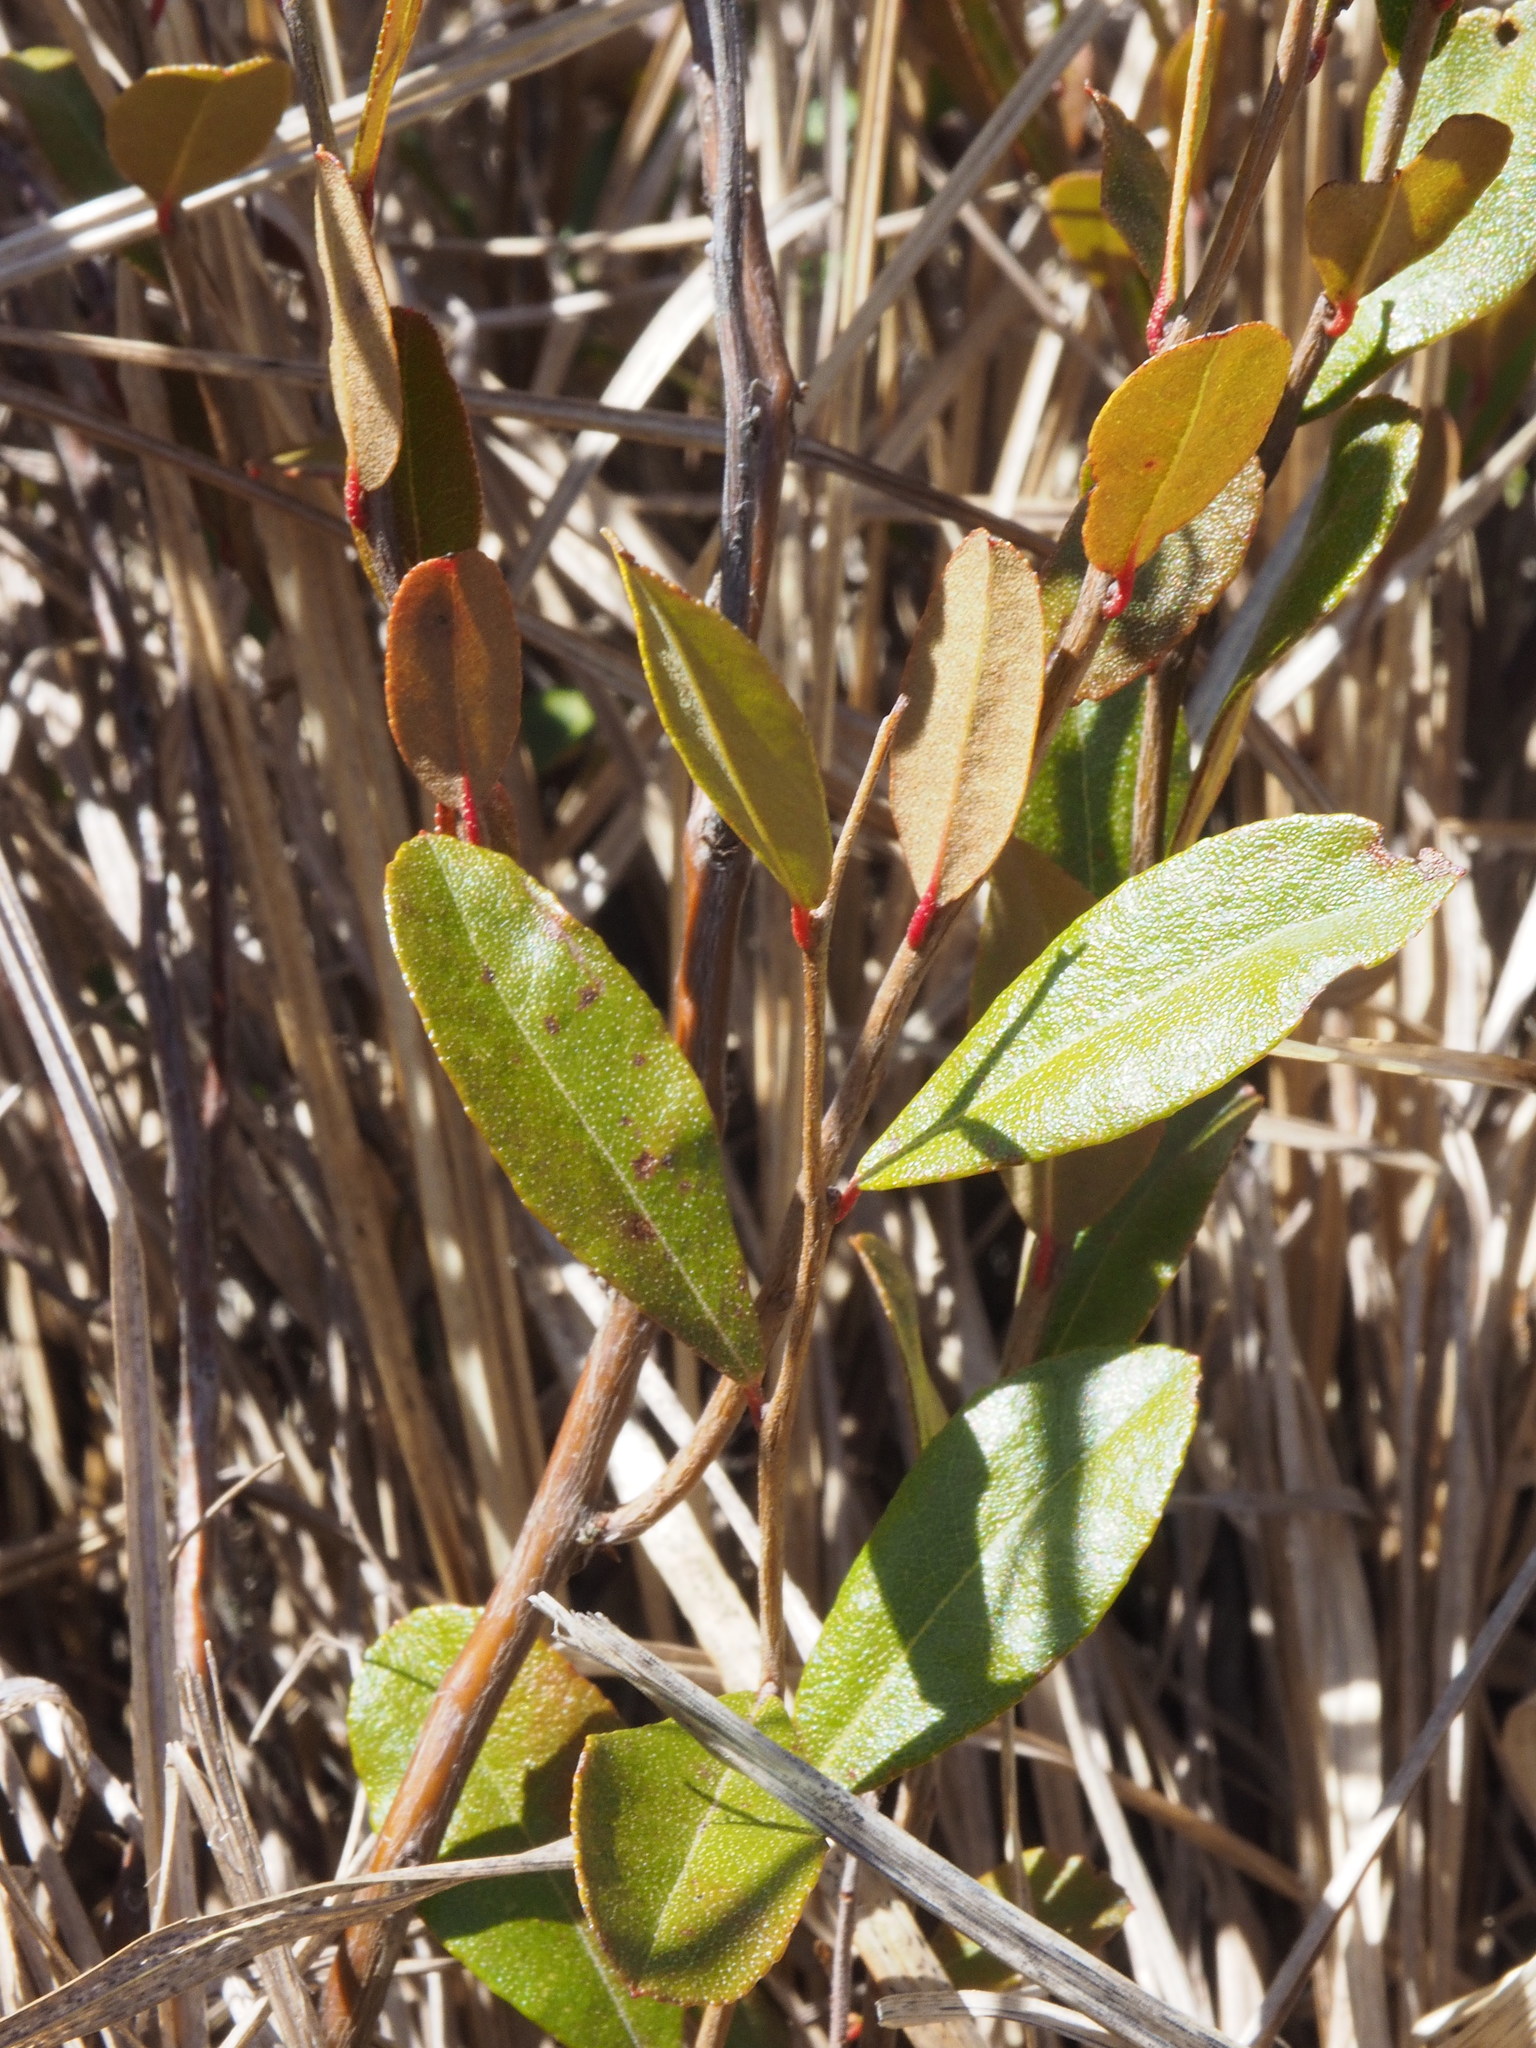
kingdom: Plantae
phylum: Tracheophyta
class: Magnoliopsida
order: Ericales
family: Ericaceae
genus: Chamaedaphne
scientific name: Chamaedaphne calyculata
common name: Leatherleaf
